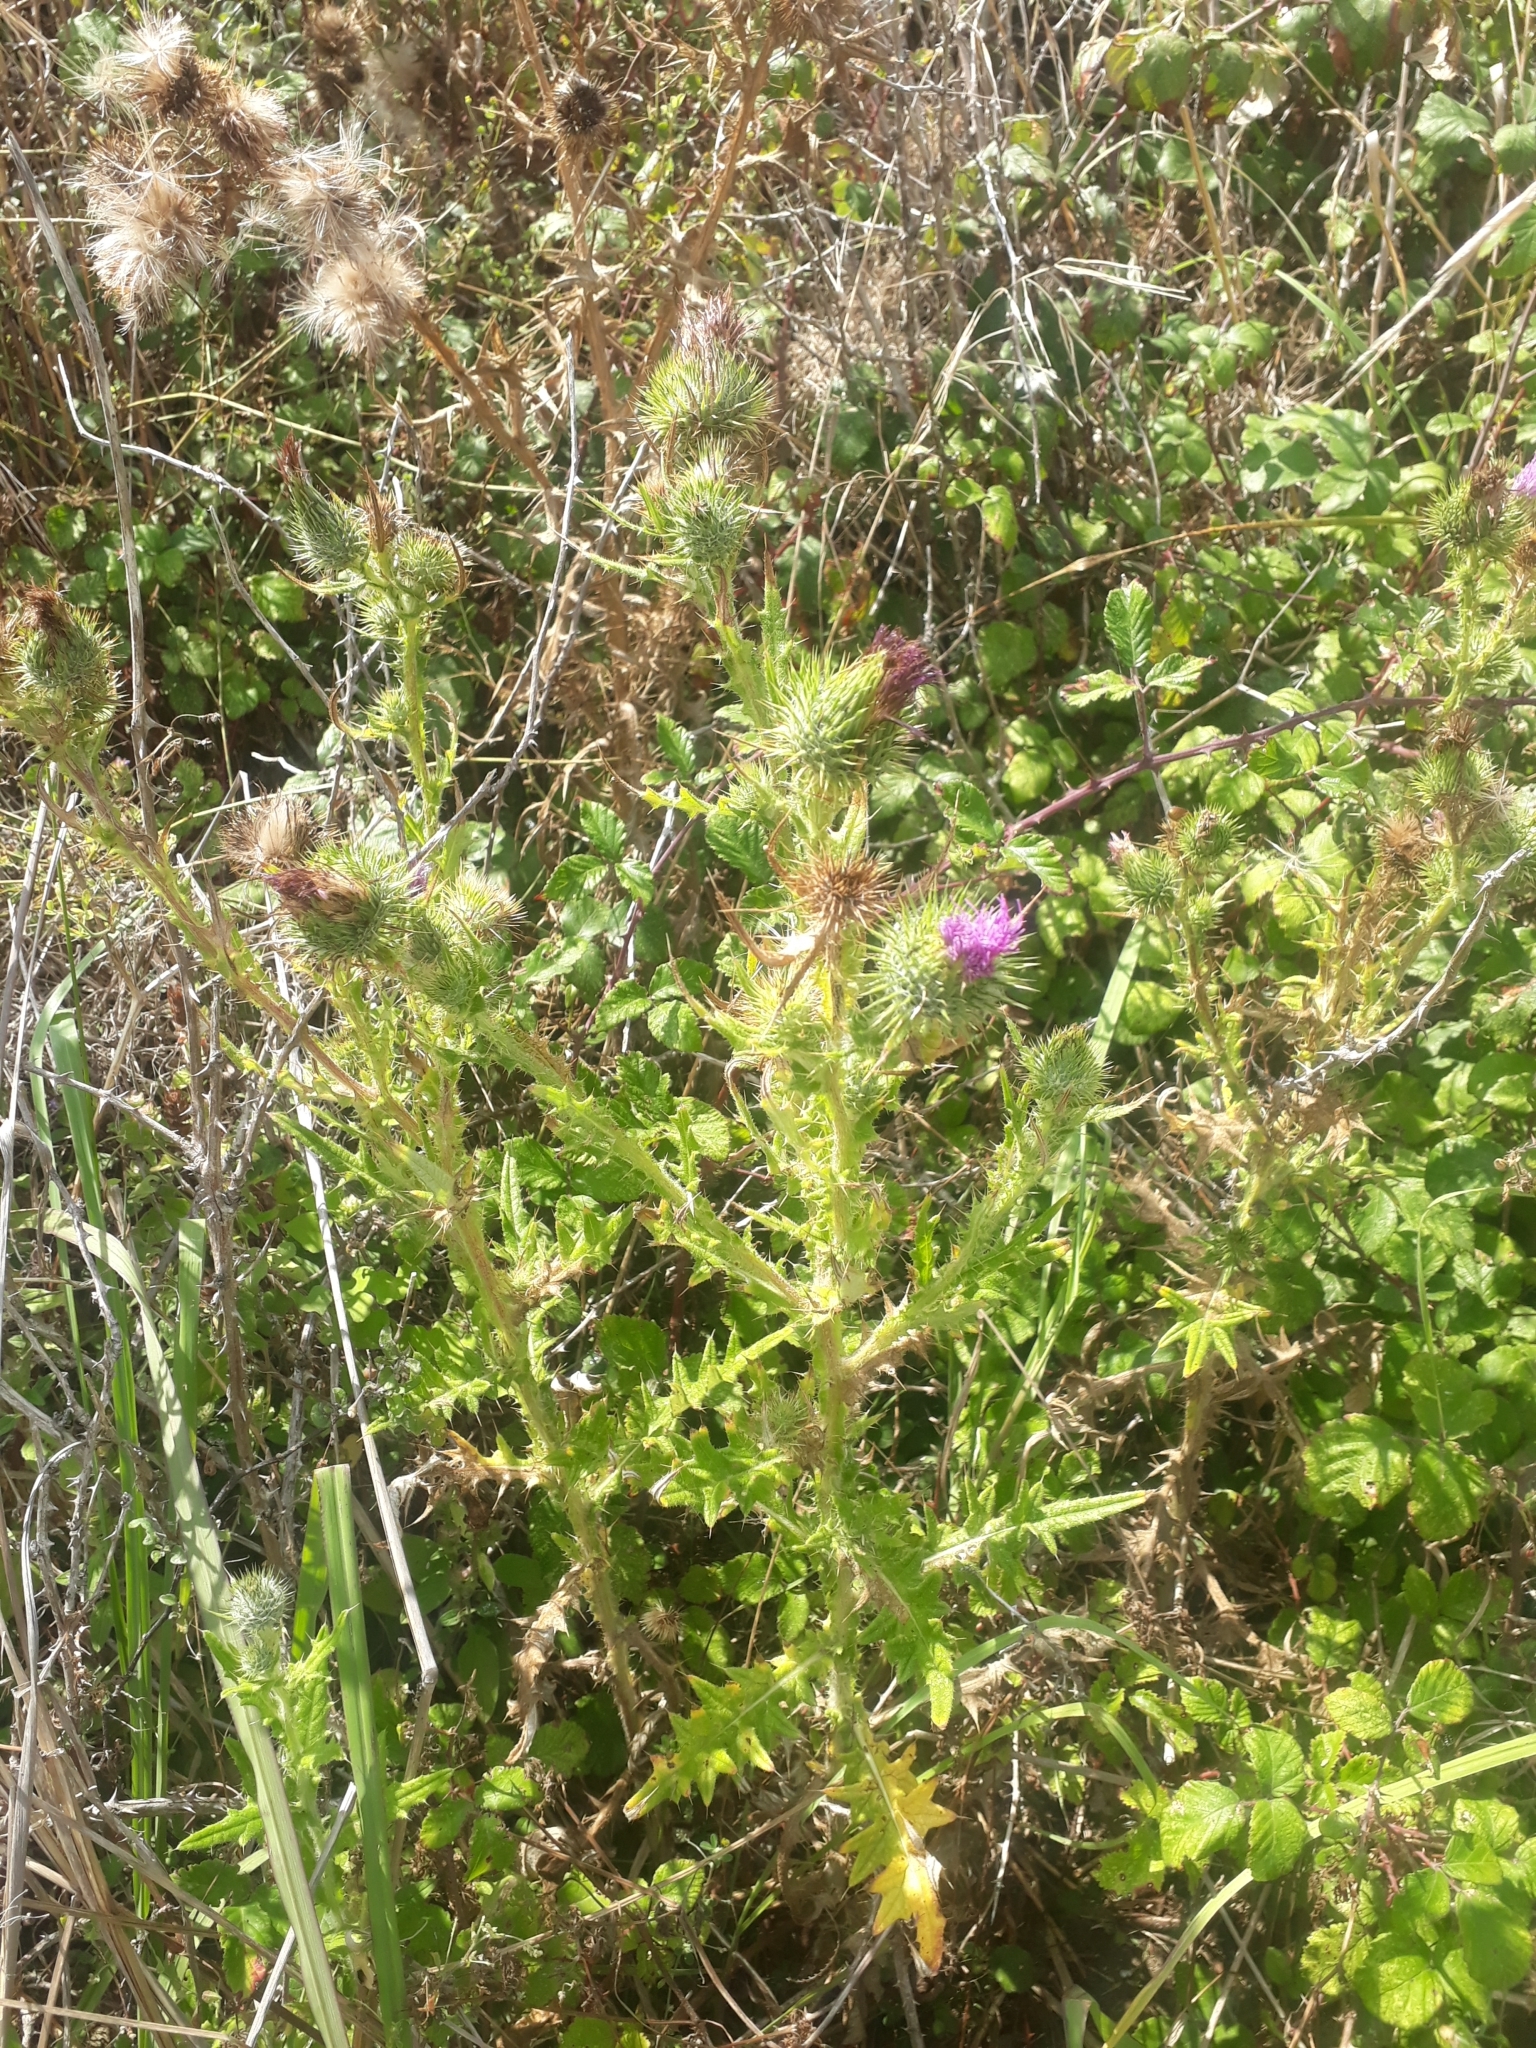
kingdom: Plantae
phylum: Tracheophyta
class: Magnoliopsida
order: Asterales
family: Asteraceae
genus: Cirsium
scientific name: Cirsium vulgare
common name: Bull thistle
